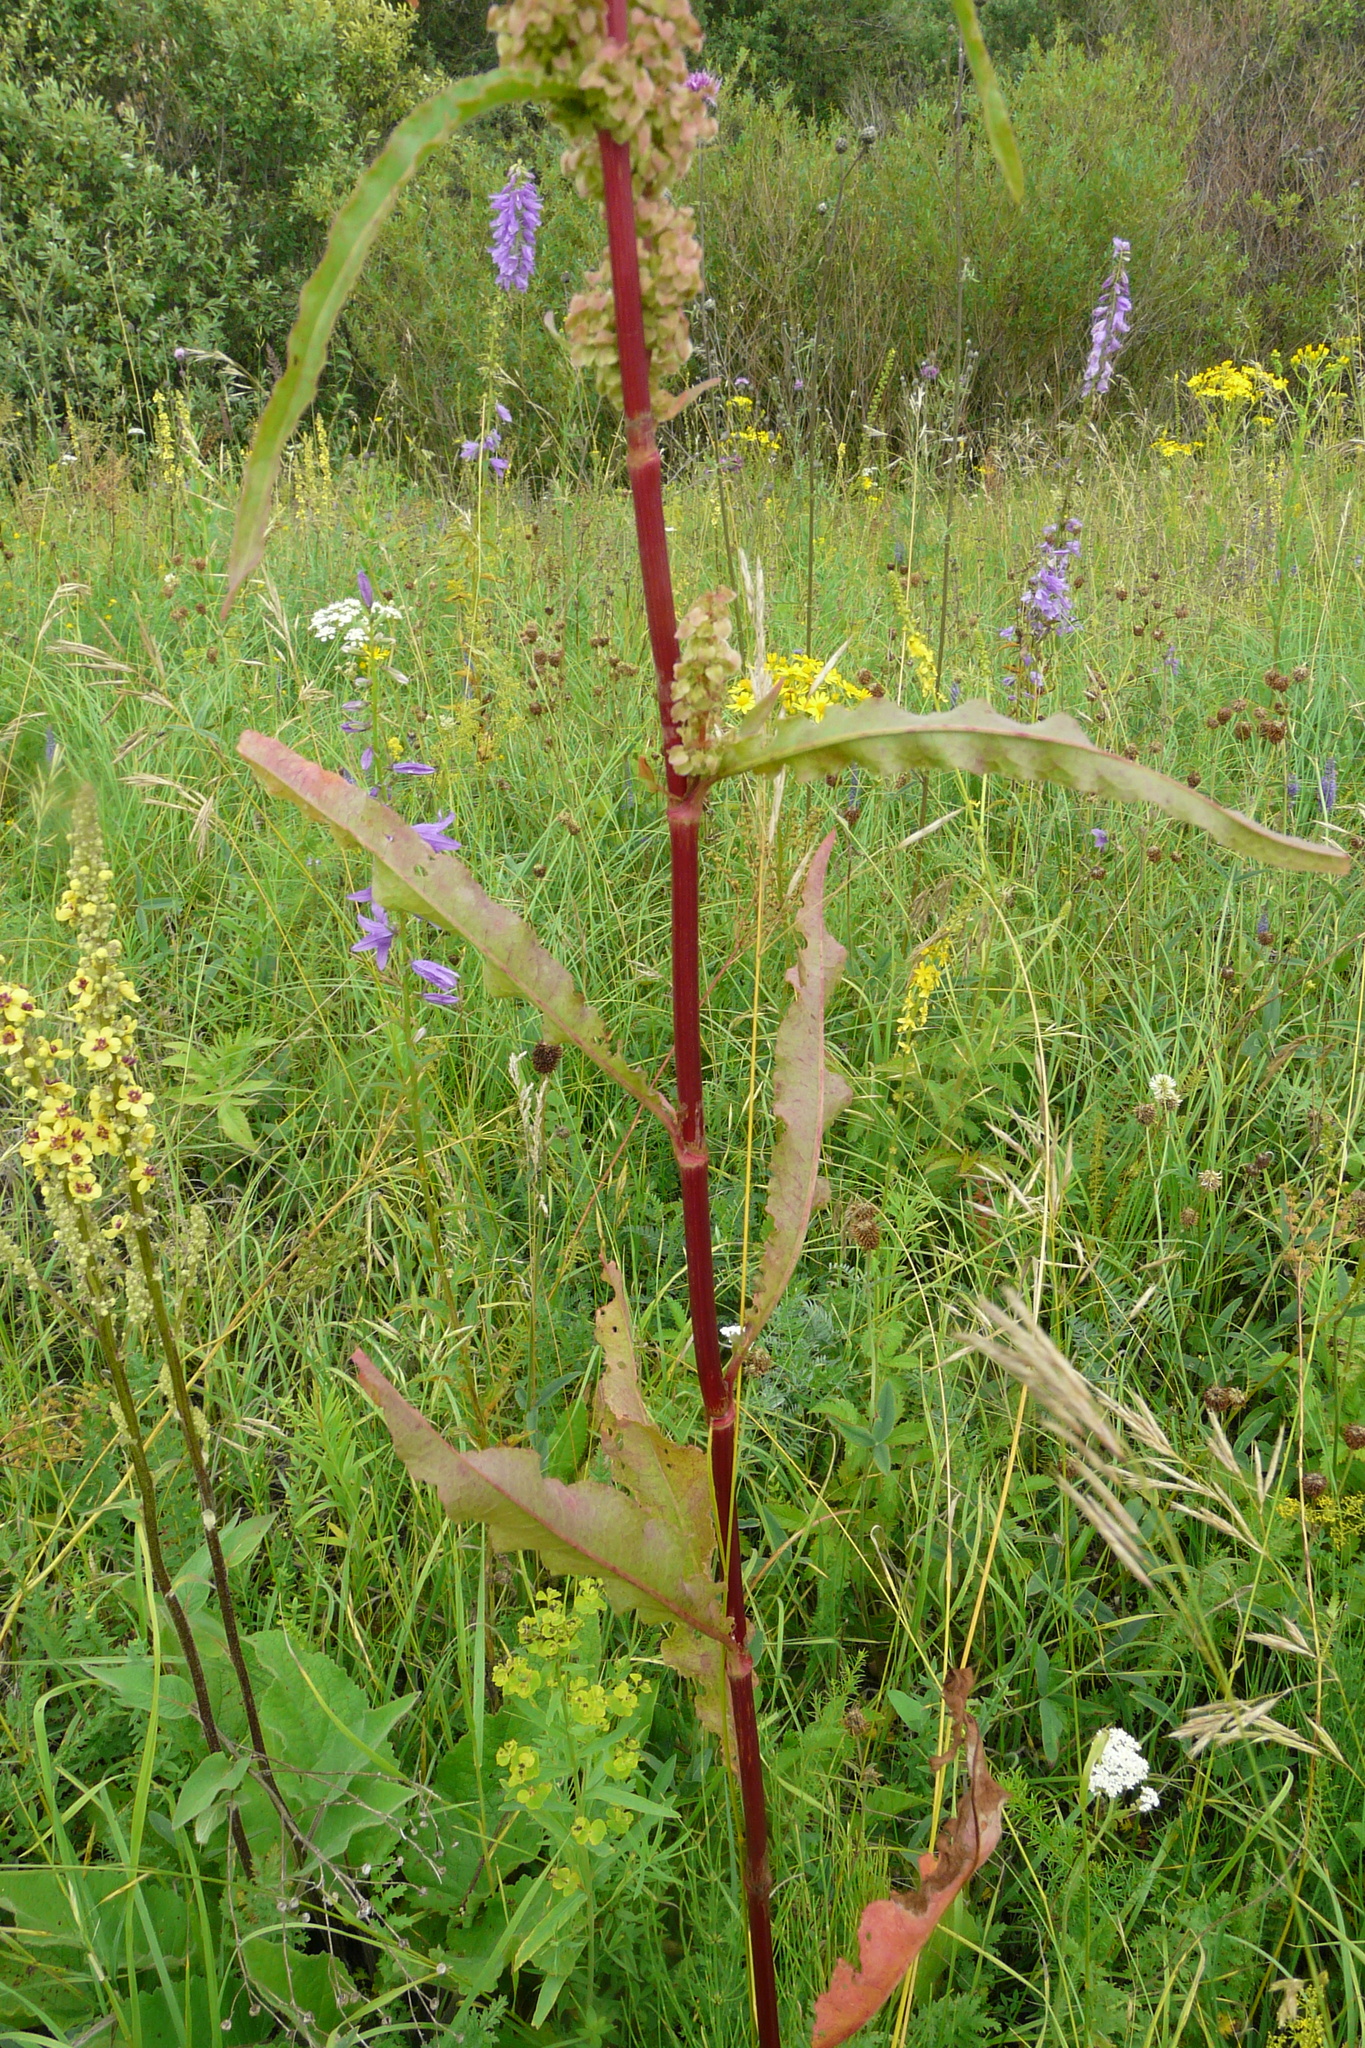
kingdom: Plantae
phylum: Tracheophyta
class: Magnoliopsida
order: Caryophyllales
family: Polygonaceae
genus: Rumex
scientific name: Rumex pseudonatronatus
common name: Field dock
